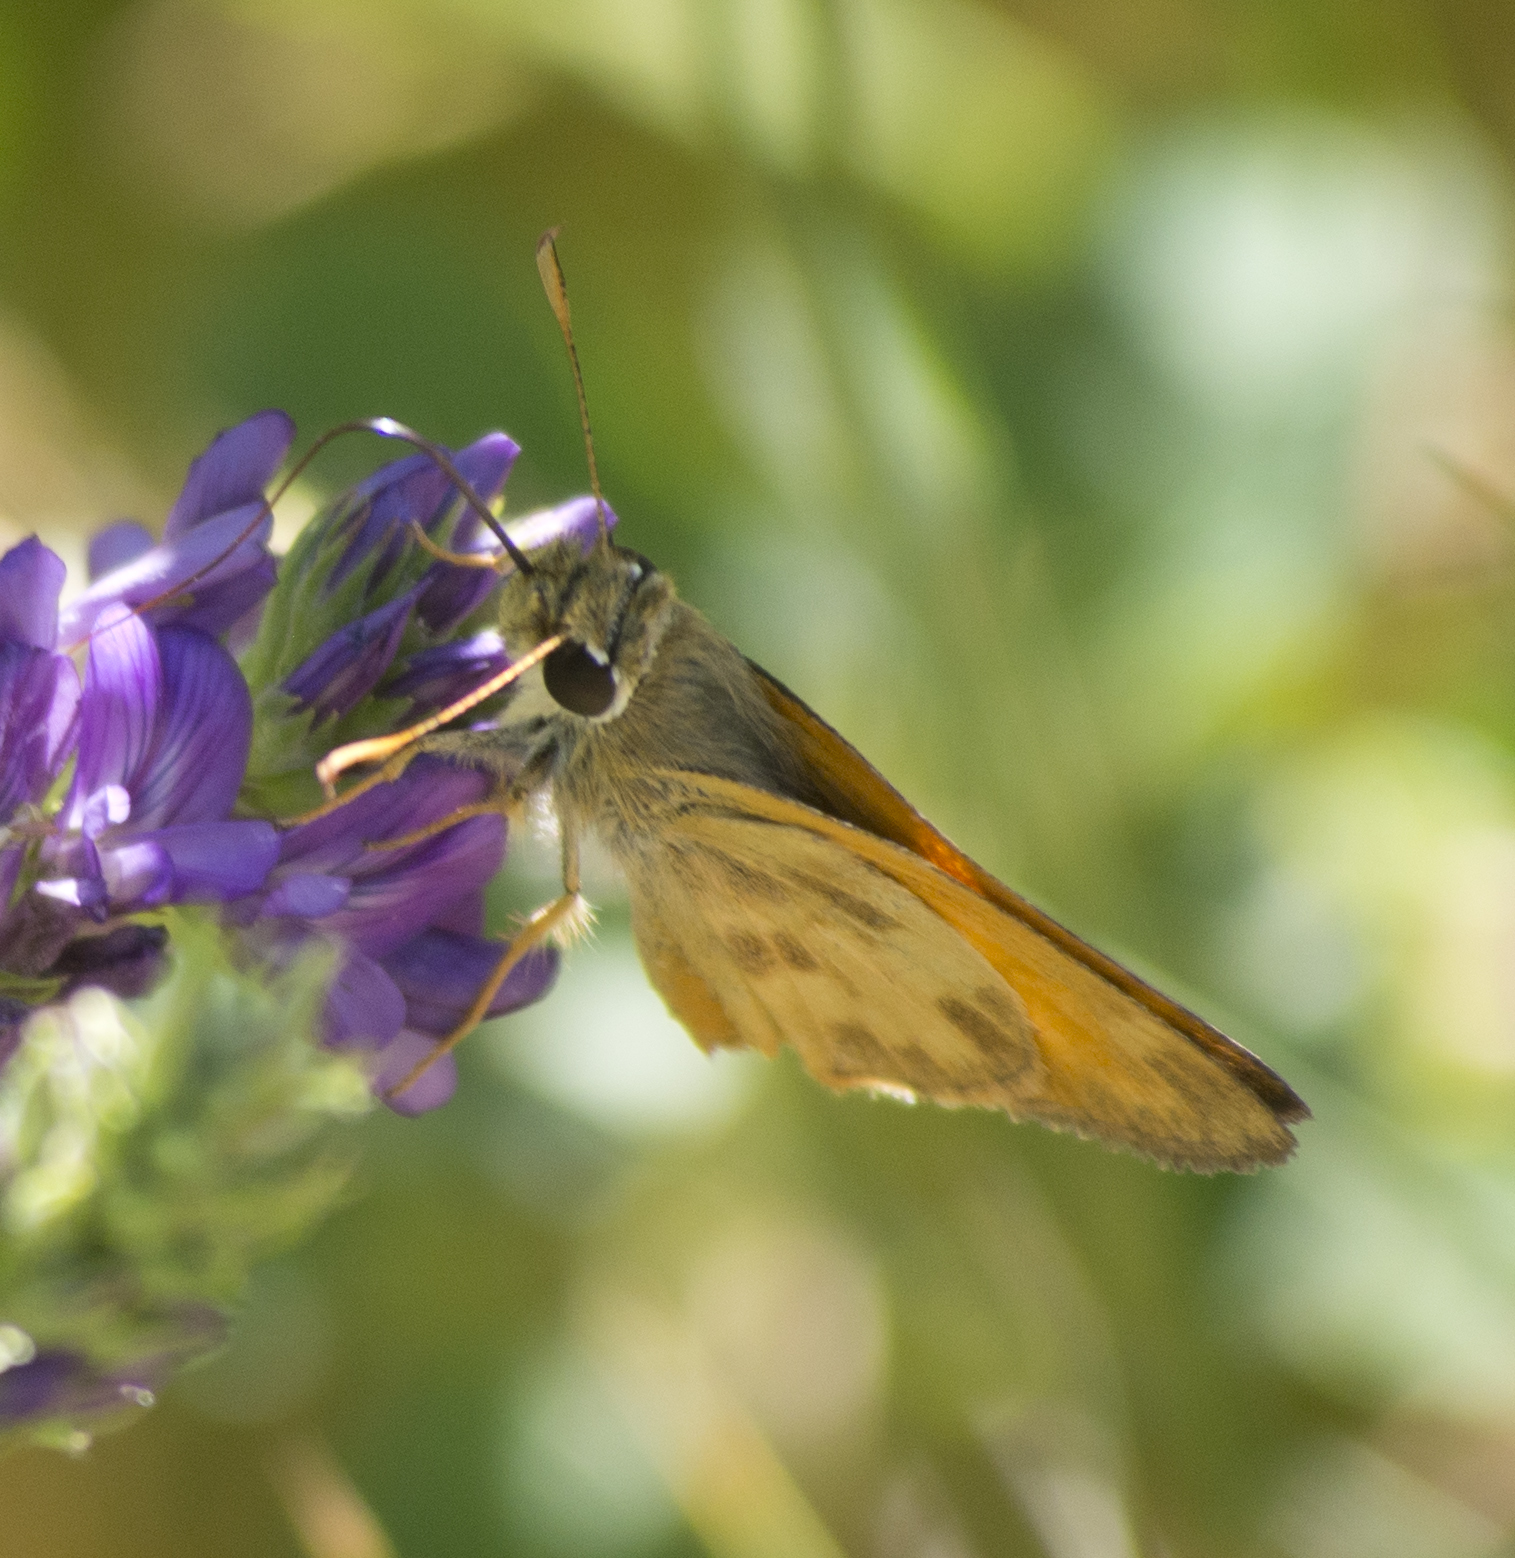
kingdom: Animalia
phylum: Arthropoda
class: Insecta
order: Lepidoptera
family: Hesperiidae
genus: Lon
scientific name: Lon taxiles
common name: Taxiles skipper
